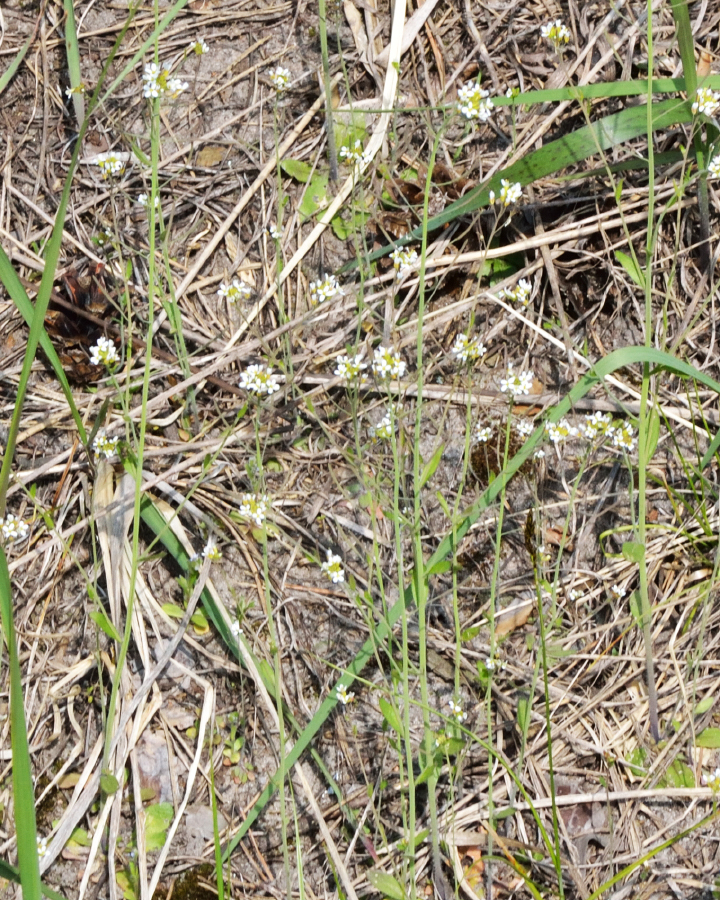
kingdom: Plantae
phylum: Tracheophyta
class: Magnoliopsida
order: Brassicales
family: Brassicaceae
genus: Arabidopsis
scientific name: Arabidopsis thaliana
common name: Thale cress
